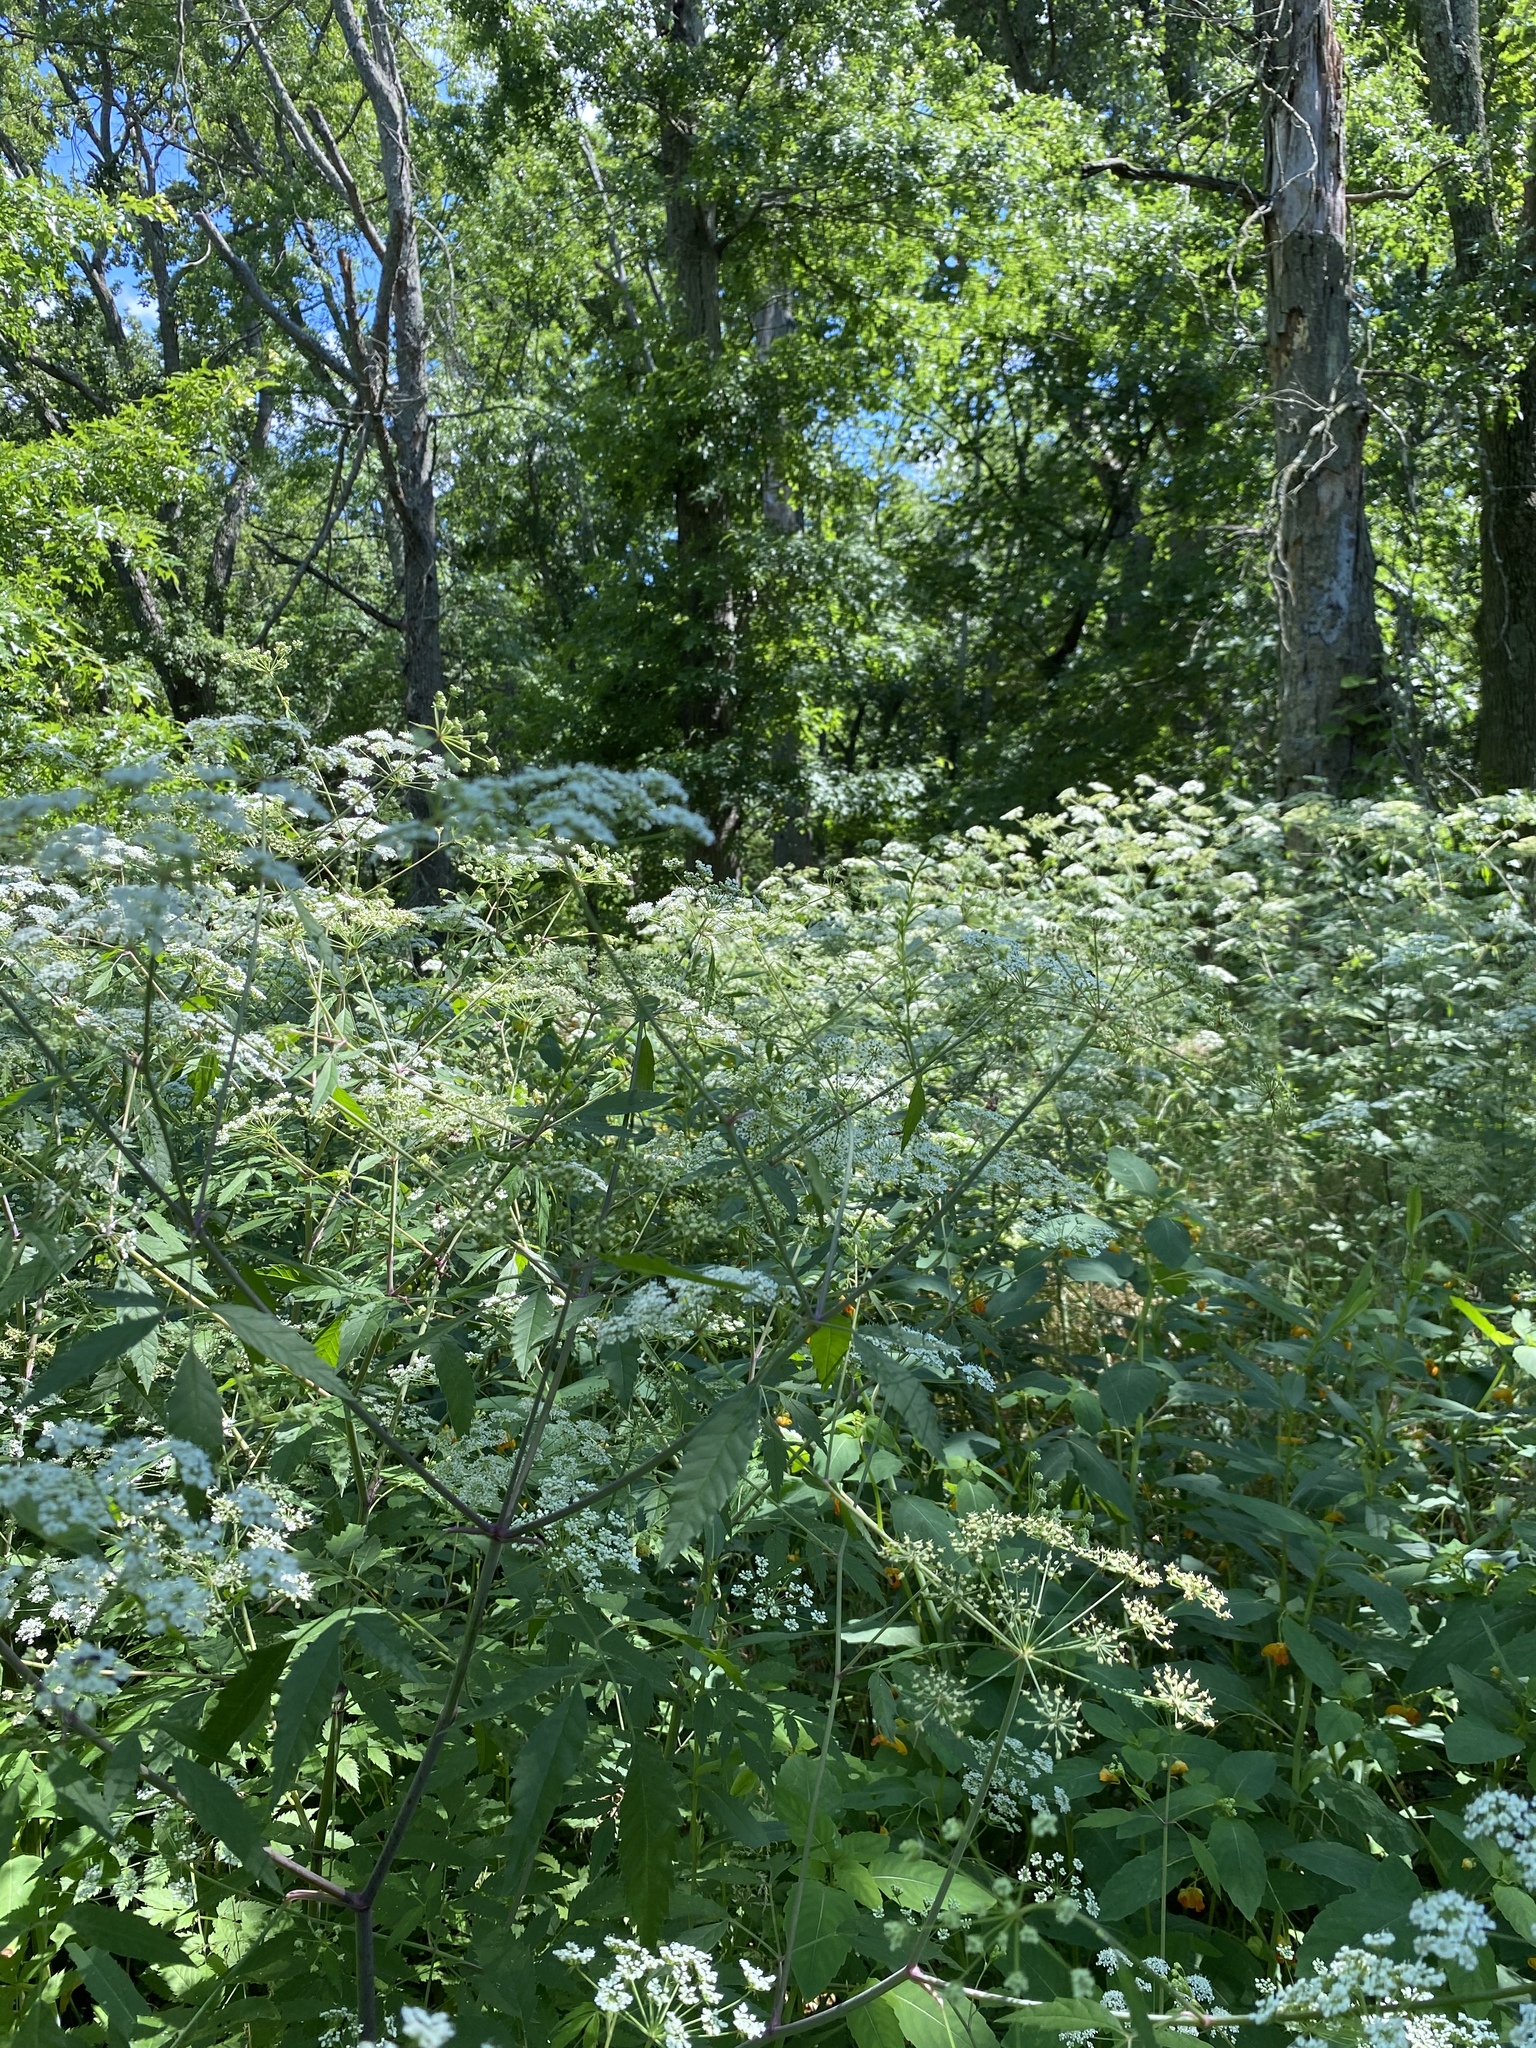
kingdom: Plantae
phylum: Tracheophyta
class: Magnoliopsida
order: Apiales
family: Apiaceae
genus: Cicuta
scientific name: Cicuta maculata
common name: Spotted cowbane
